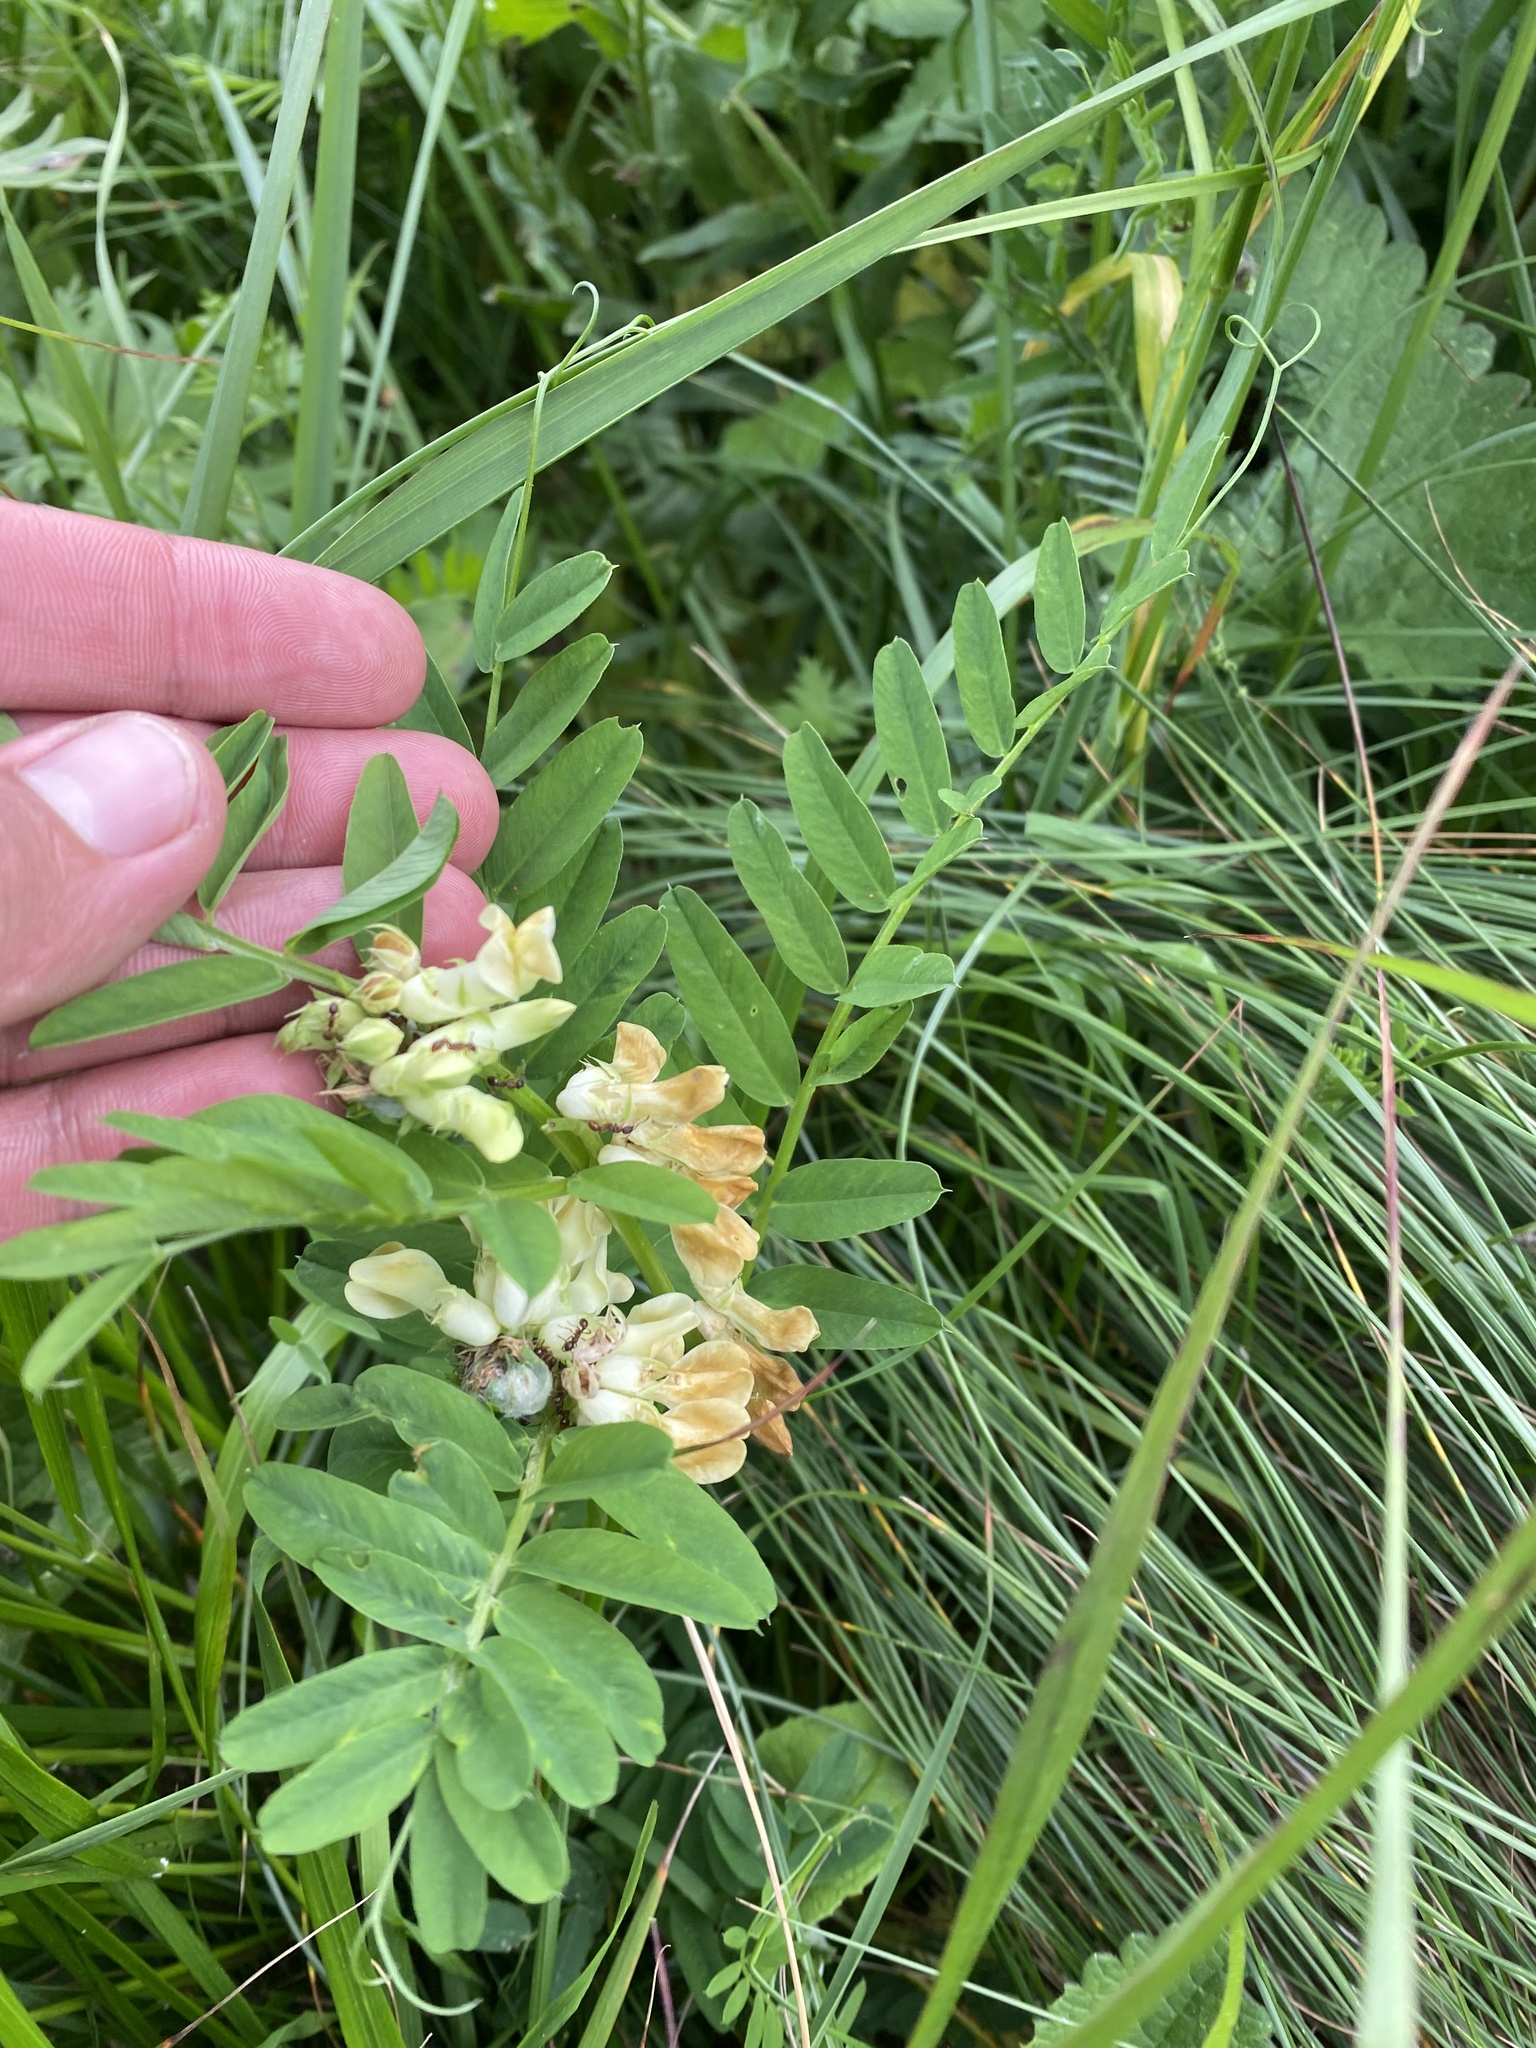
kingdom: Plantae
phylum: Tracheophyta
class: Magnoliopsida
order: Fabales
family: Fabaceae
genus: Vicia
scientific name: Vicia balansae
